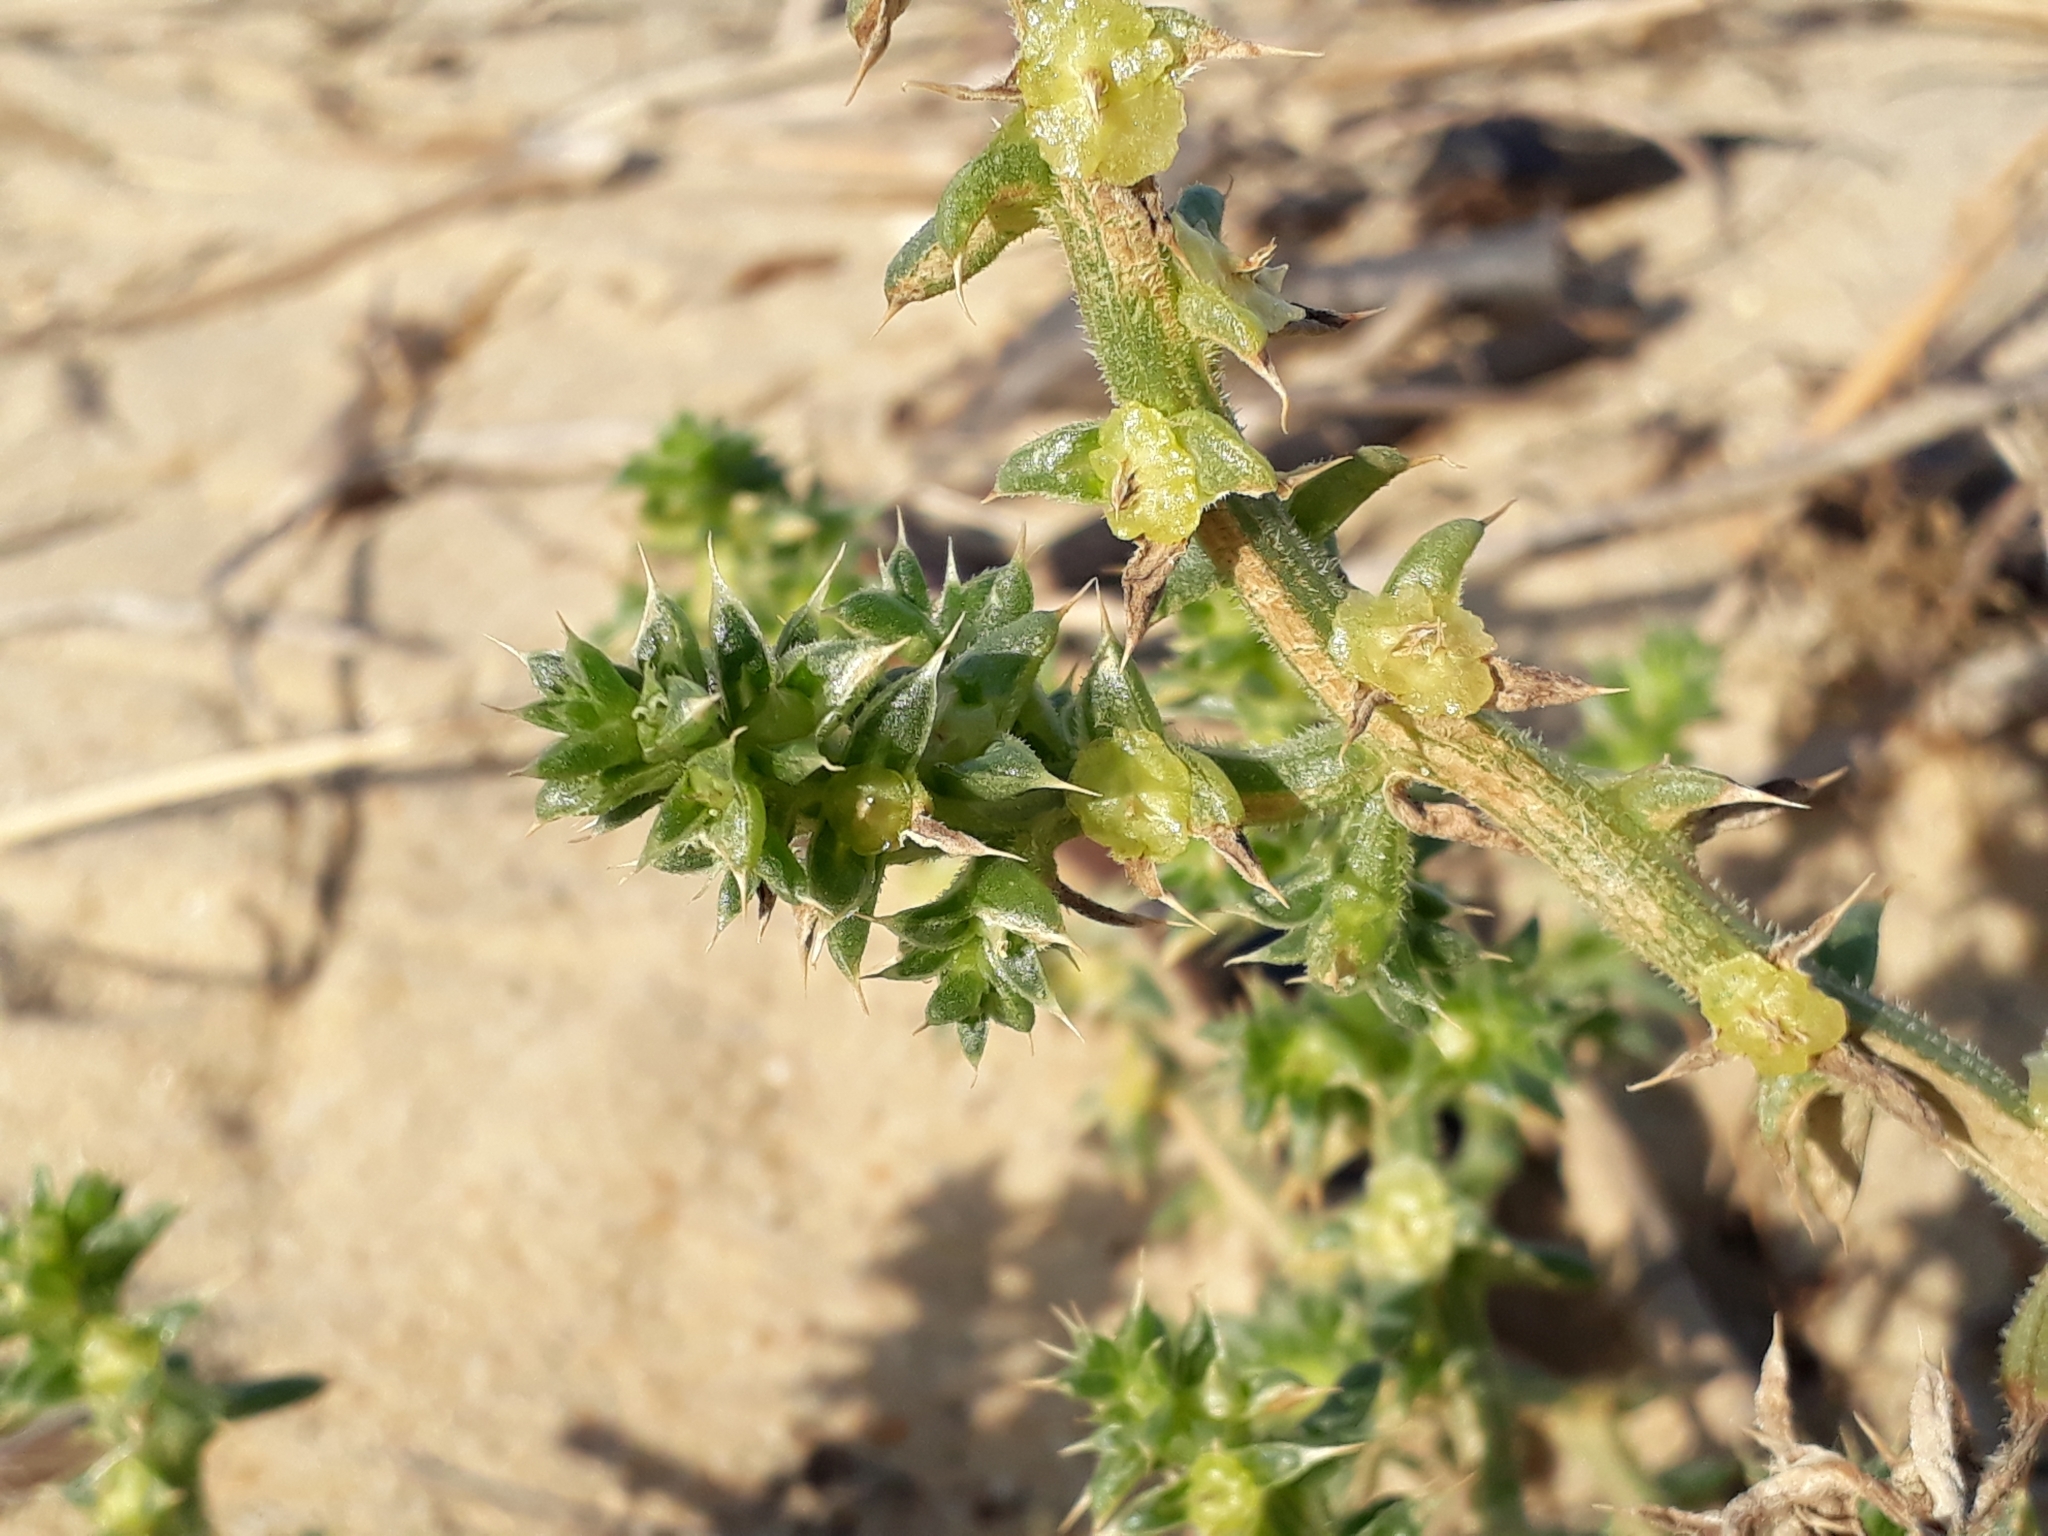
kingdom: Plantae
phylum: Tracheophyta
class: Magnoliopsida
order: Caryophyllales
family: Amaranthaceae
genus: Salsola
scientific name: Salsola kali
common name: Saltwort
